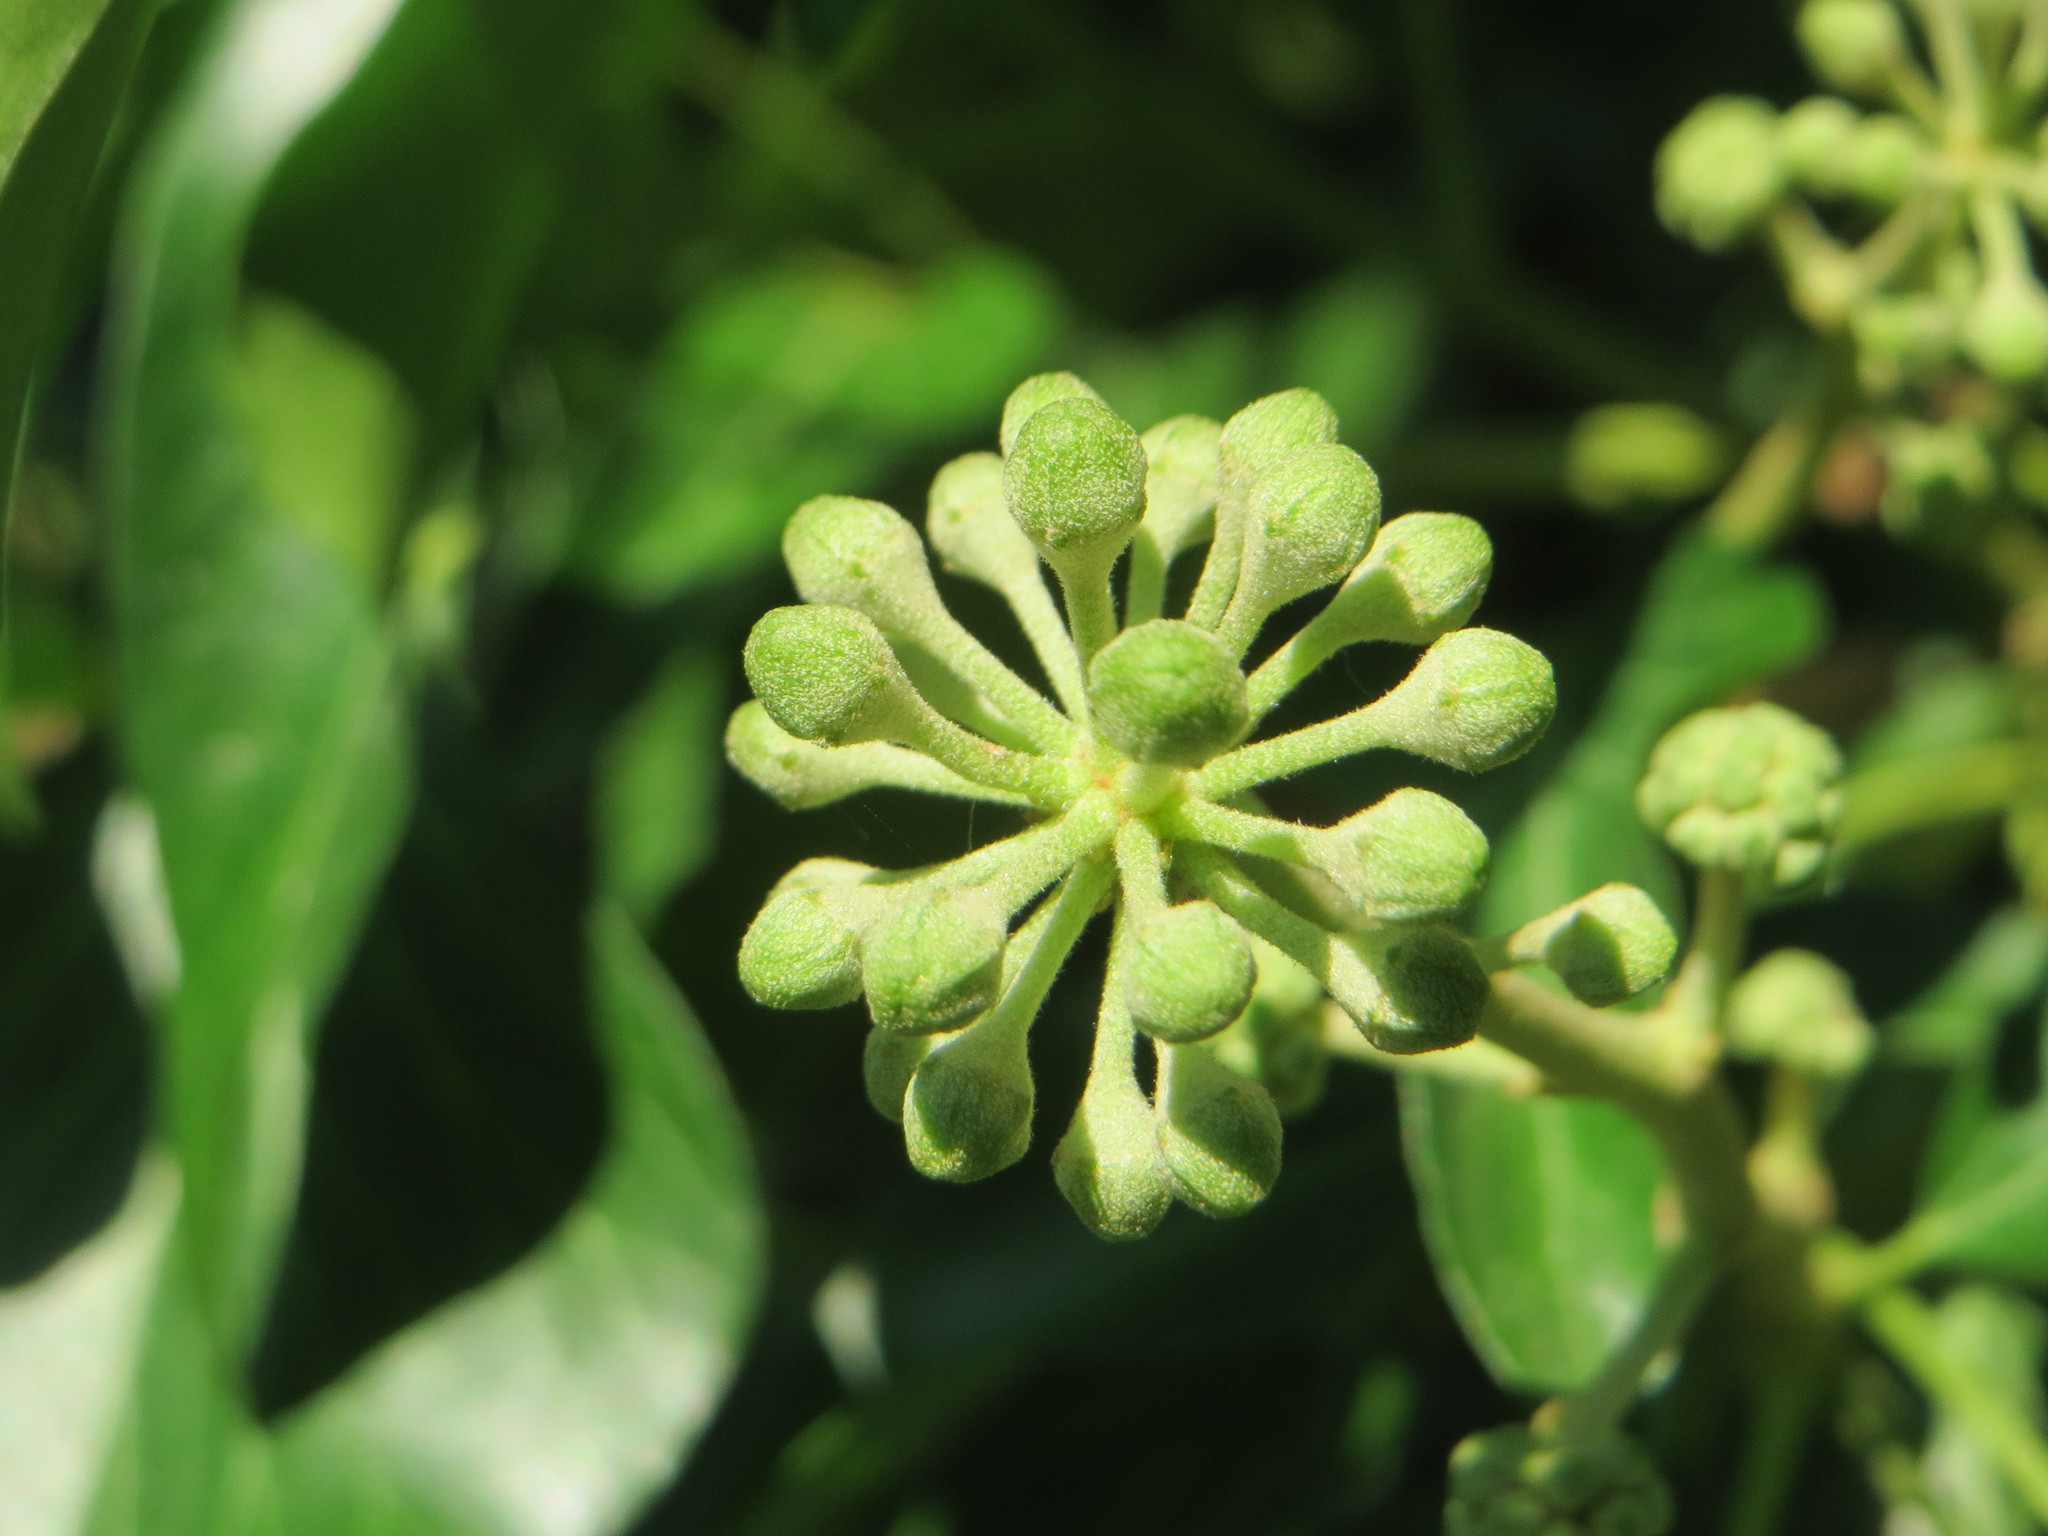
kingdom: Plantae
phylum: Tracheophyta
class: Magnoliopsida
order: Apiales
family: Araliaceae
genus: Hedera
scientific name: Hedera helix
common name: Ivy
